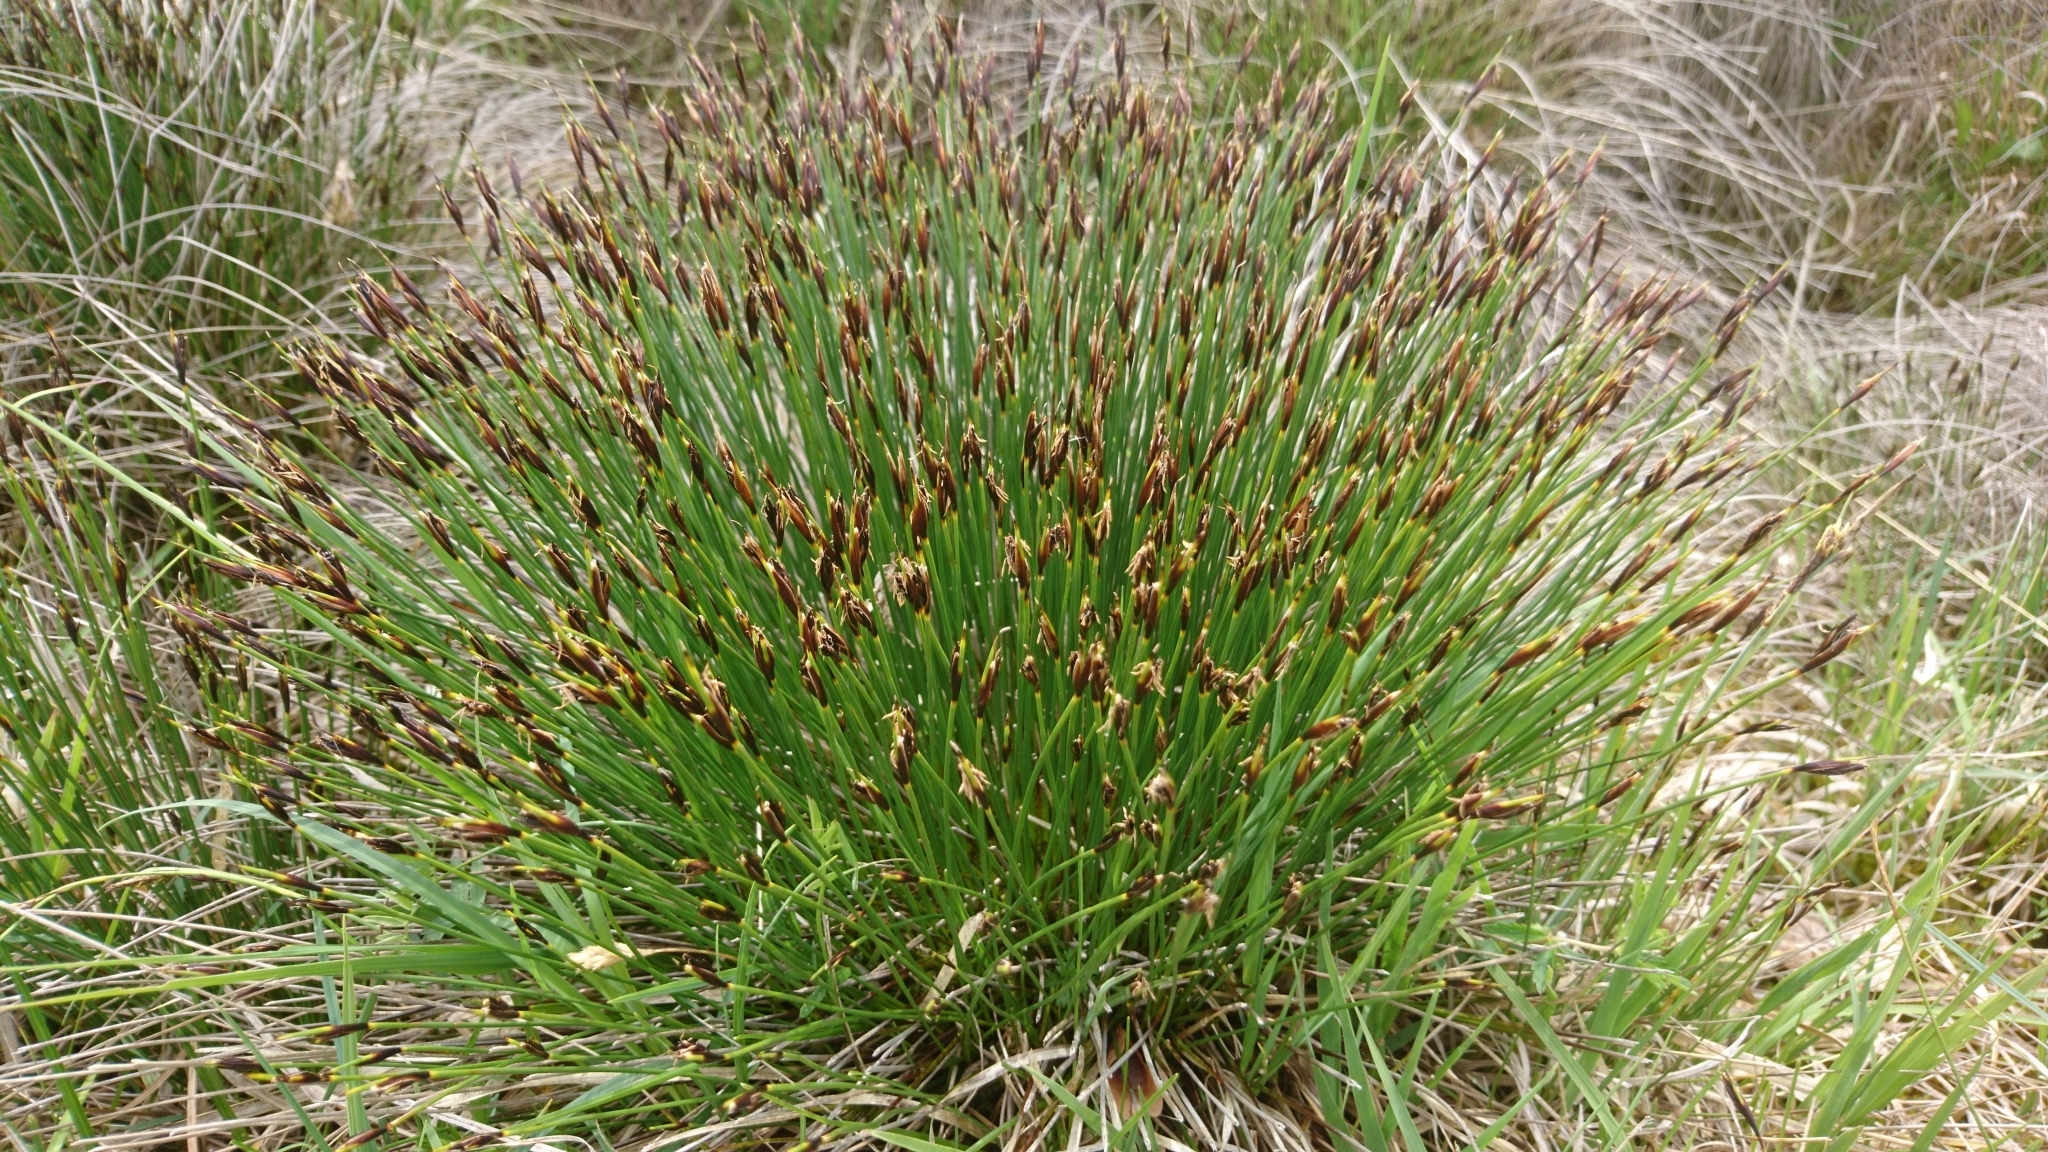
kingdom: Plantae
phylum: Tracheophyta
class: Liliopsida
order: Poales
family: Cyperaceae
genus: Trichophorum
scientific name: Trichophorum cespitosum
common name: Cespitose bulrush
